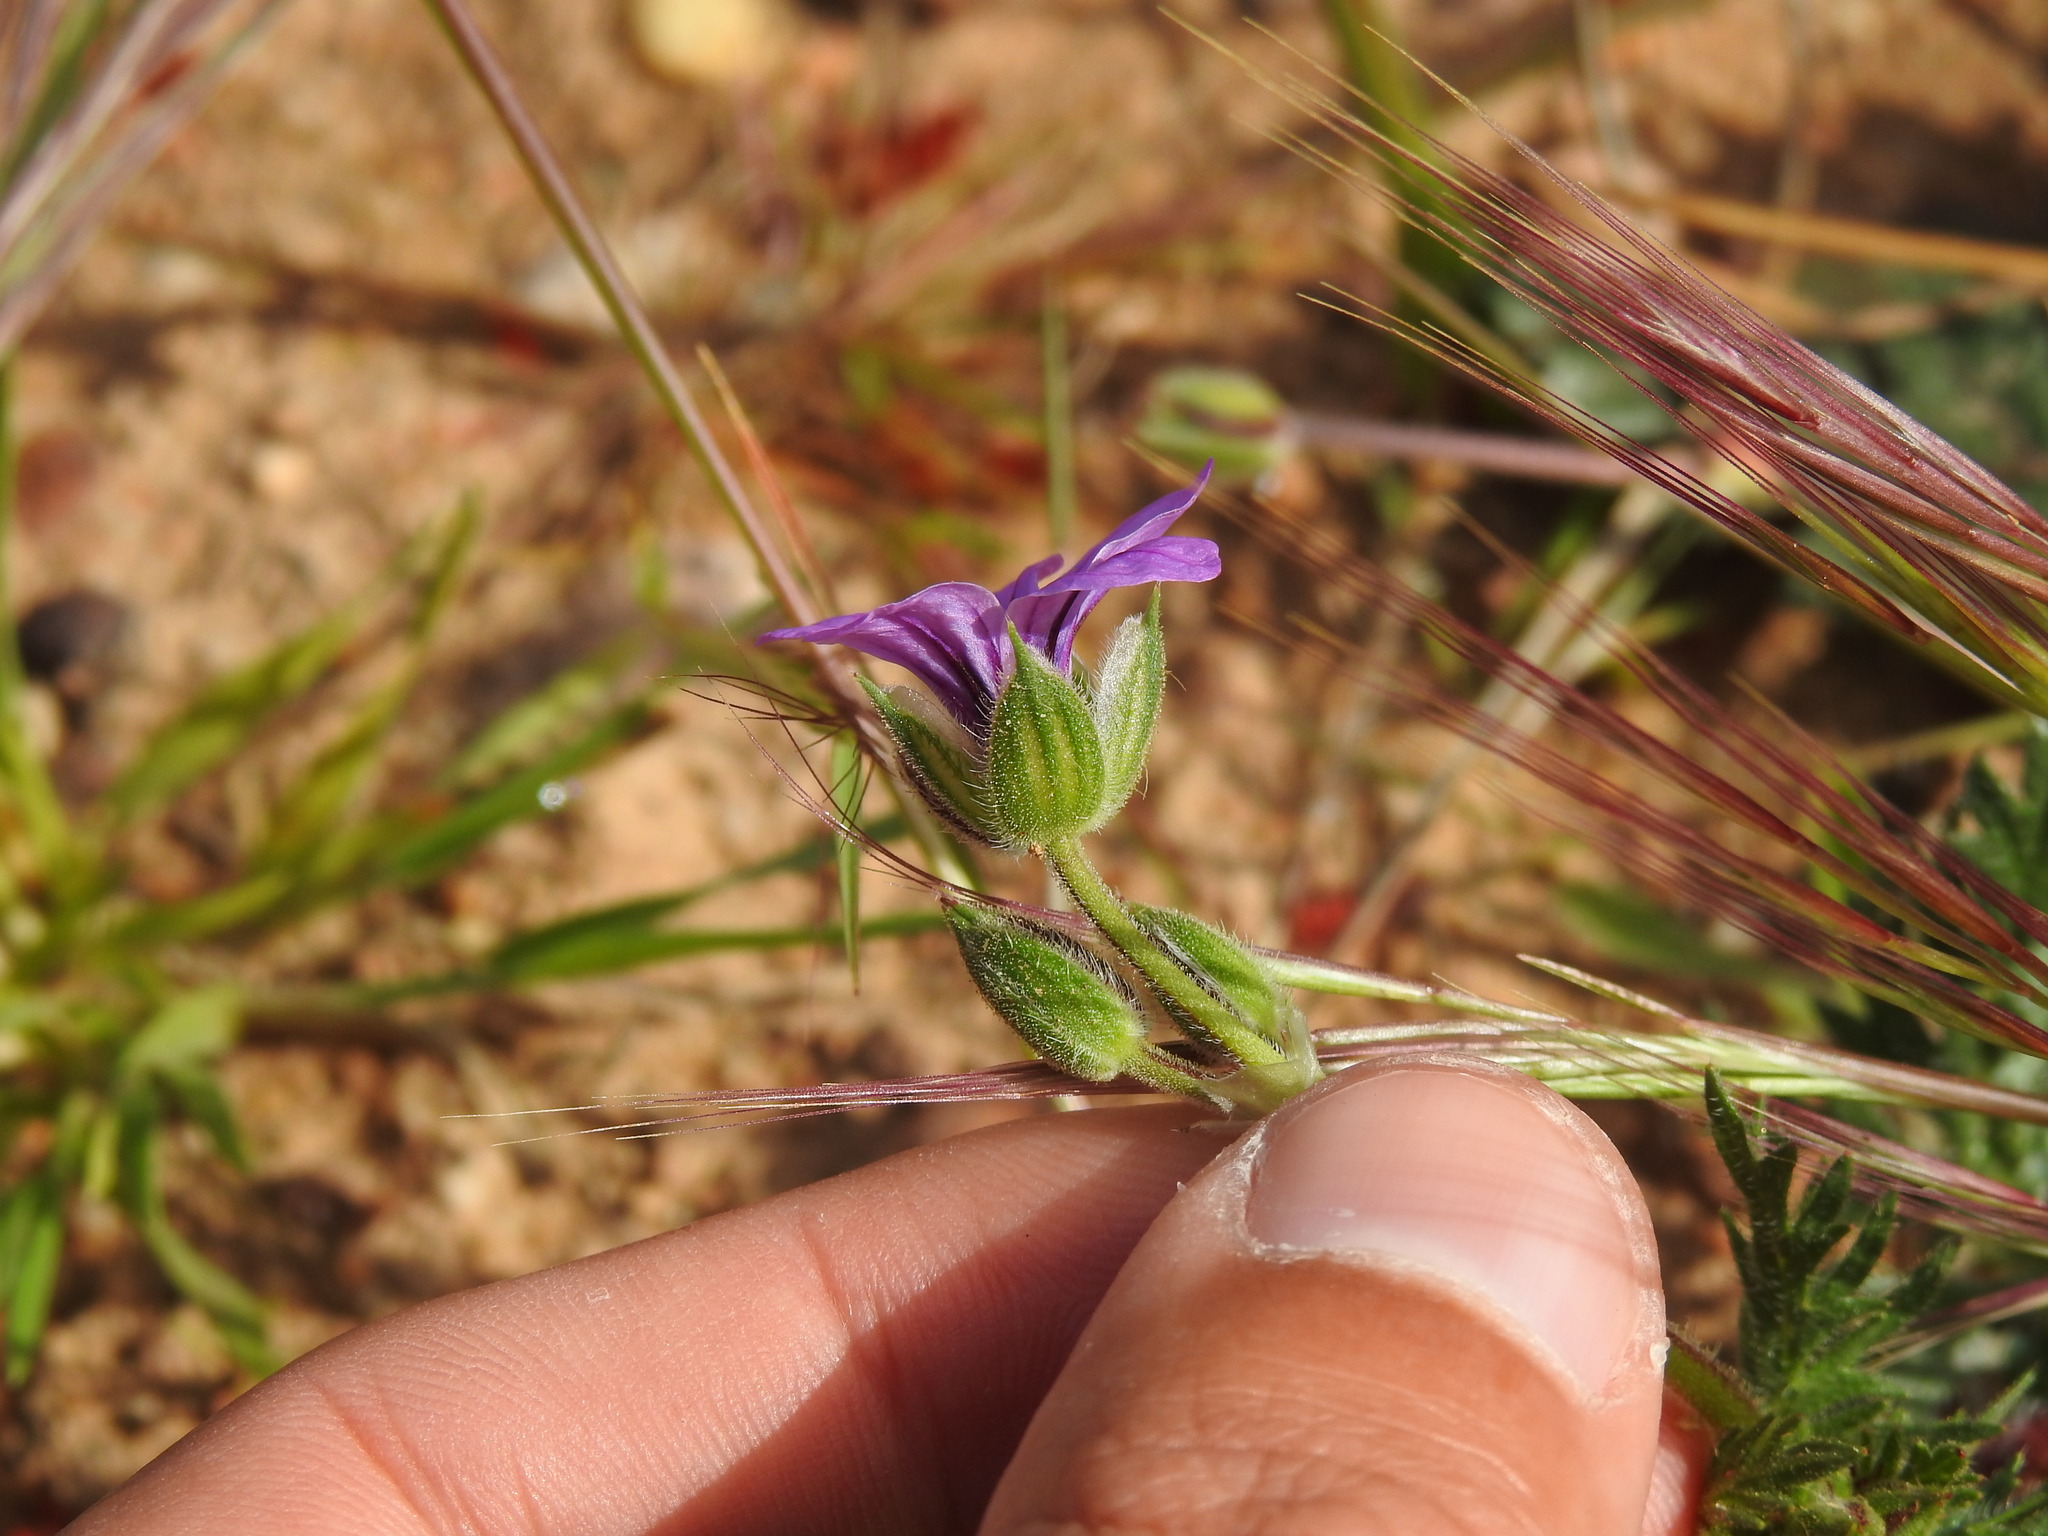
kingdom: Plantae
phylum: Tracheophyta
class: Magnoliopsida
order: Geraniales
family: Geraniaceae
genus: Erodium
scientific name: Erodium botrys
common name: Mediterranean stork's-bill
